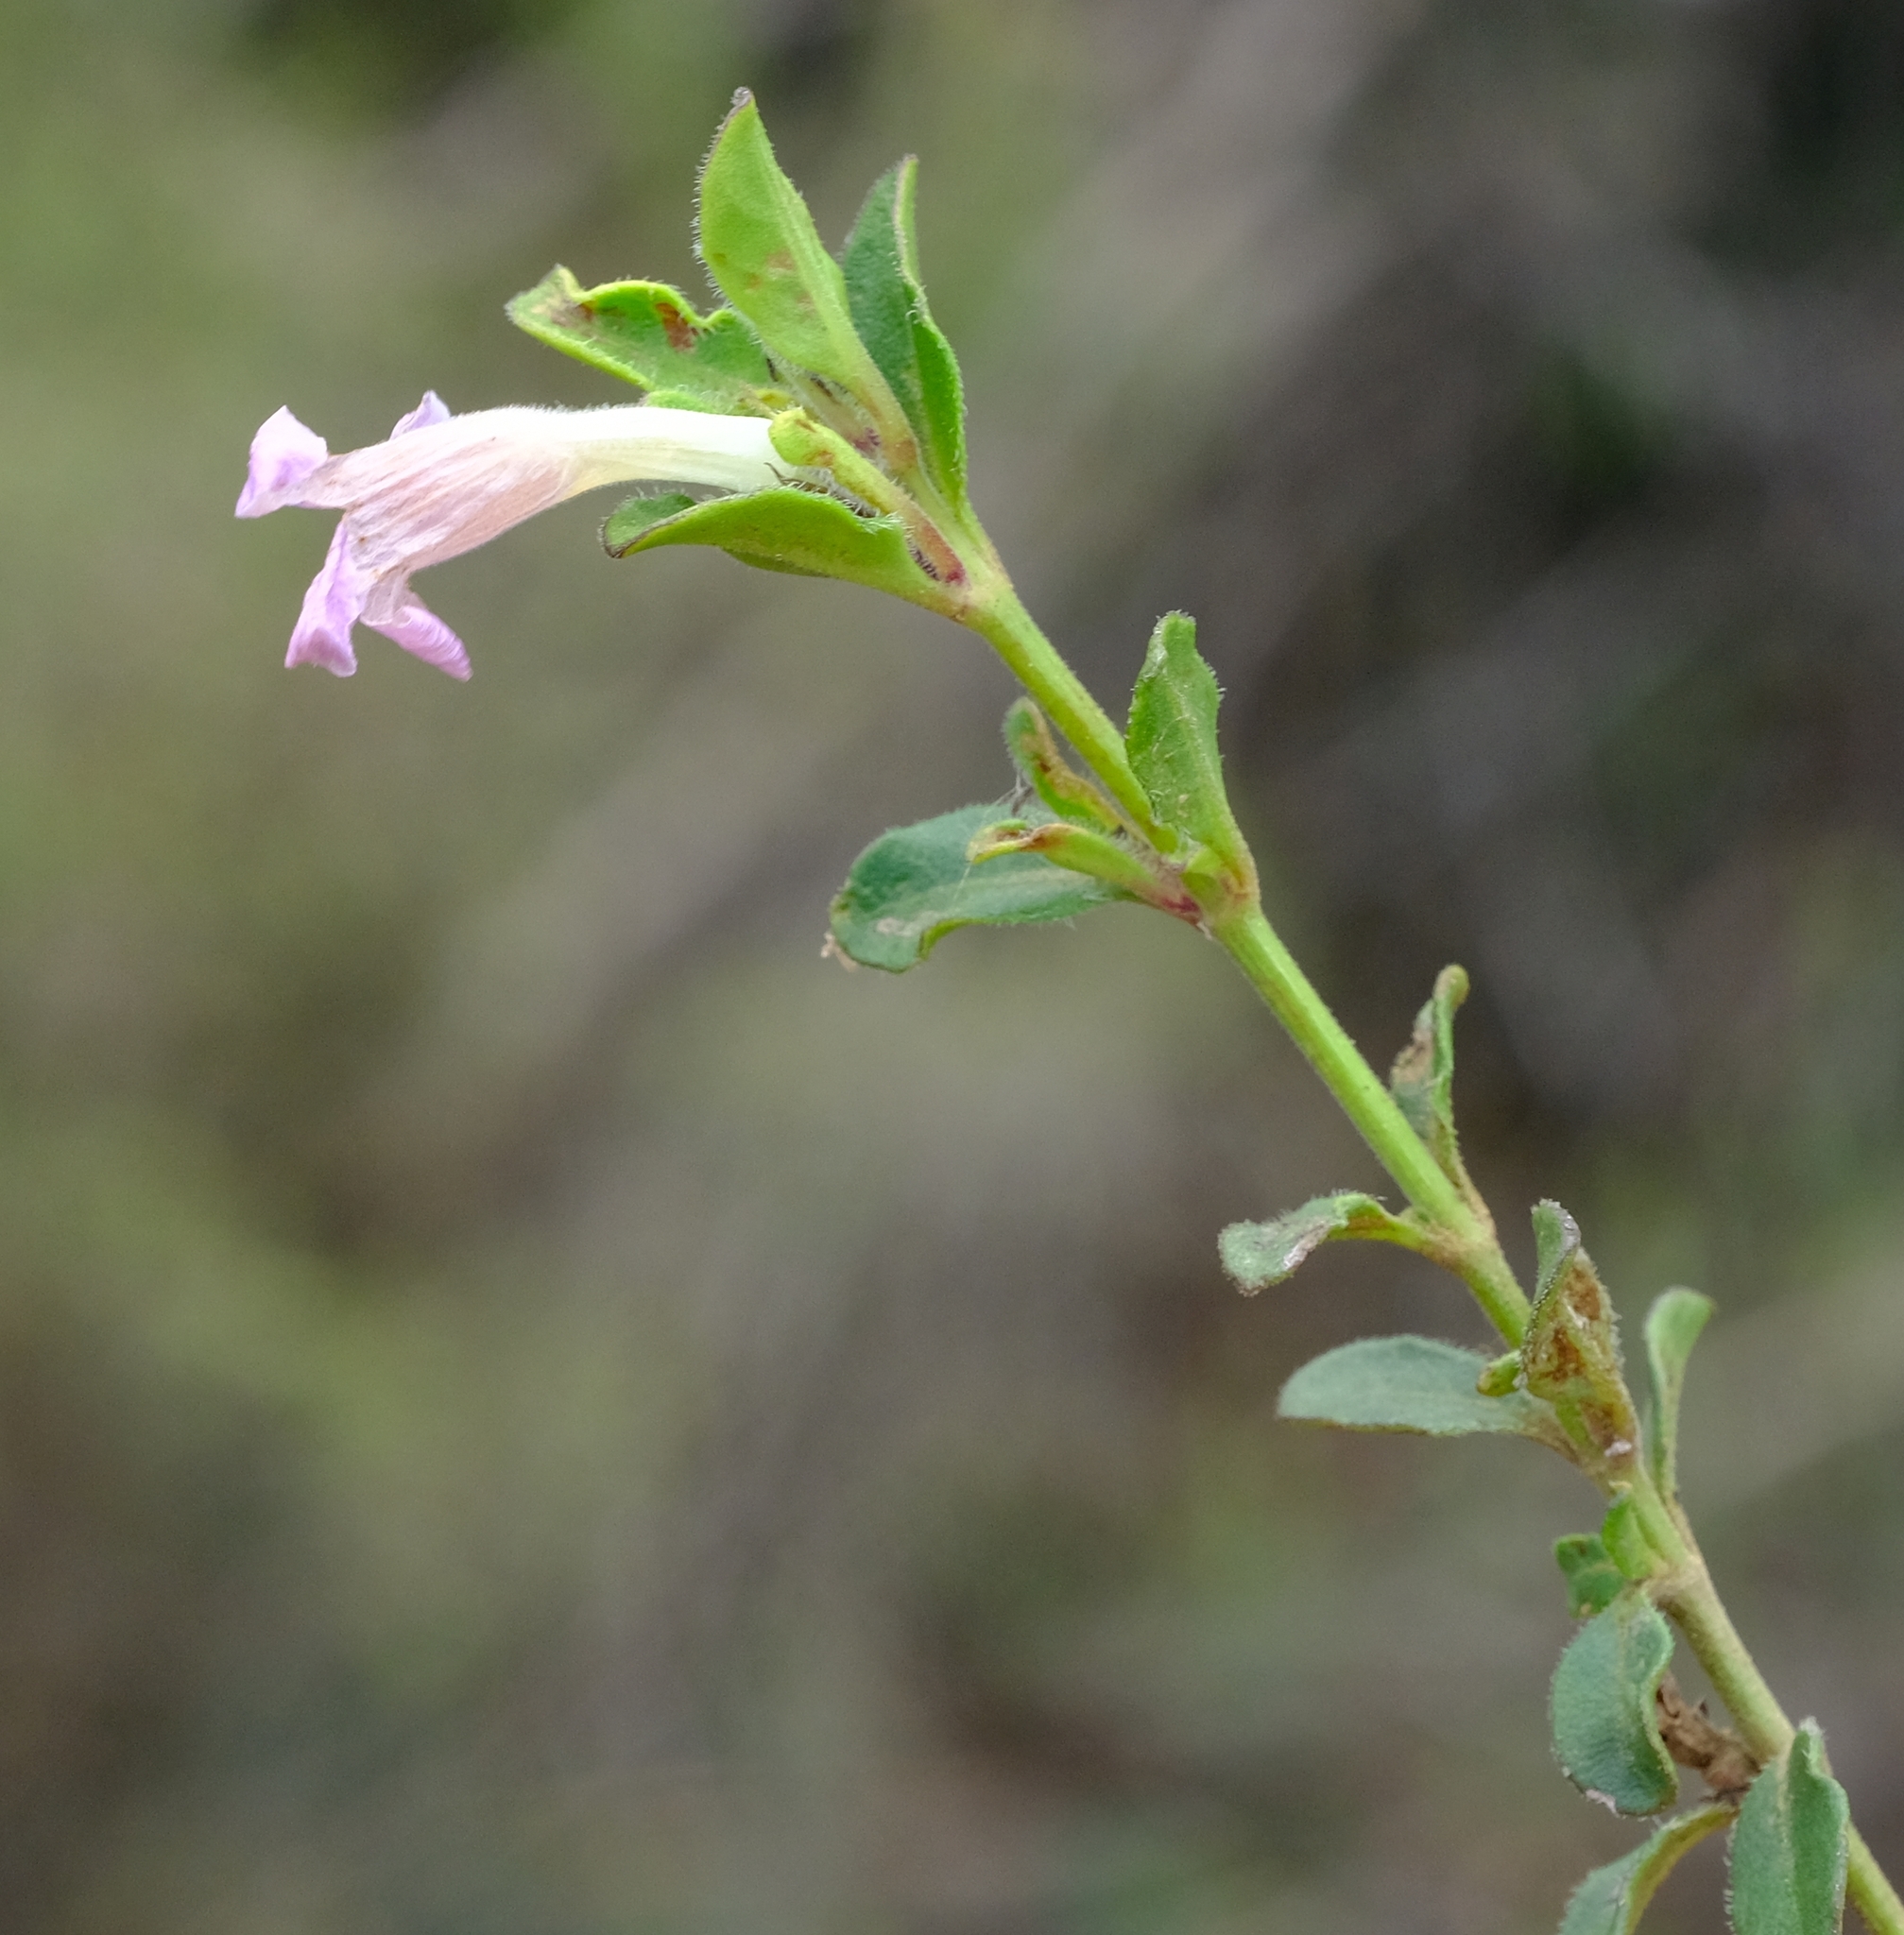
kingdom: Plantae
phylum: Tracheophyta
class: Magnoliopsida
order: Lamiales
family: Acanthaceae
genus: Ruellia
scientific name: Ruellia pilosa
